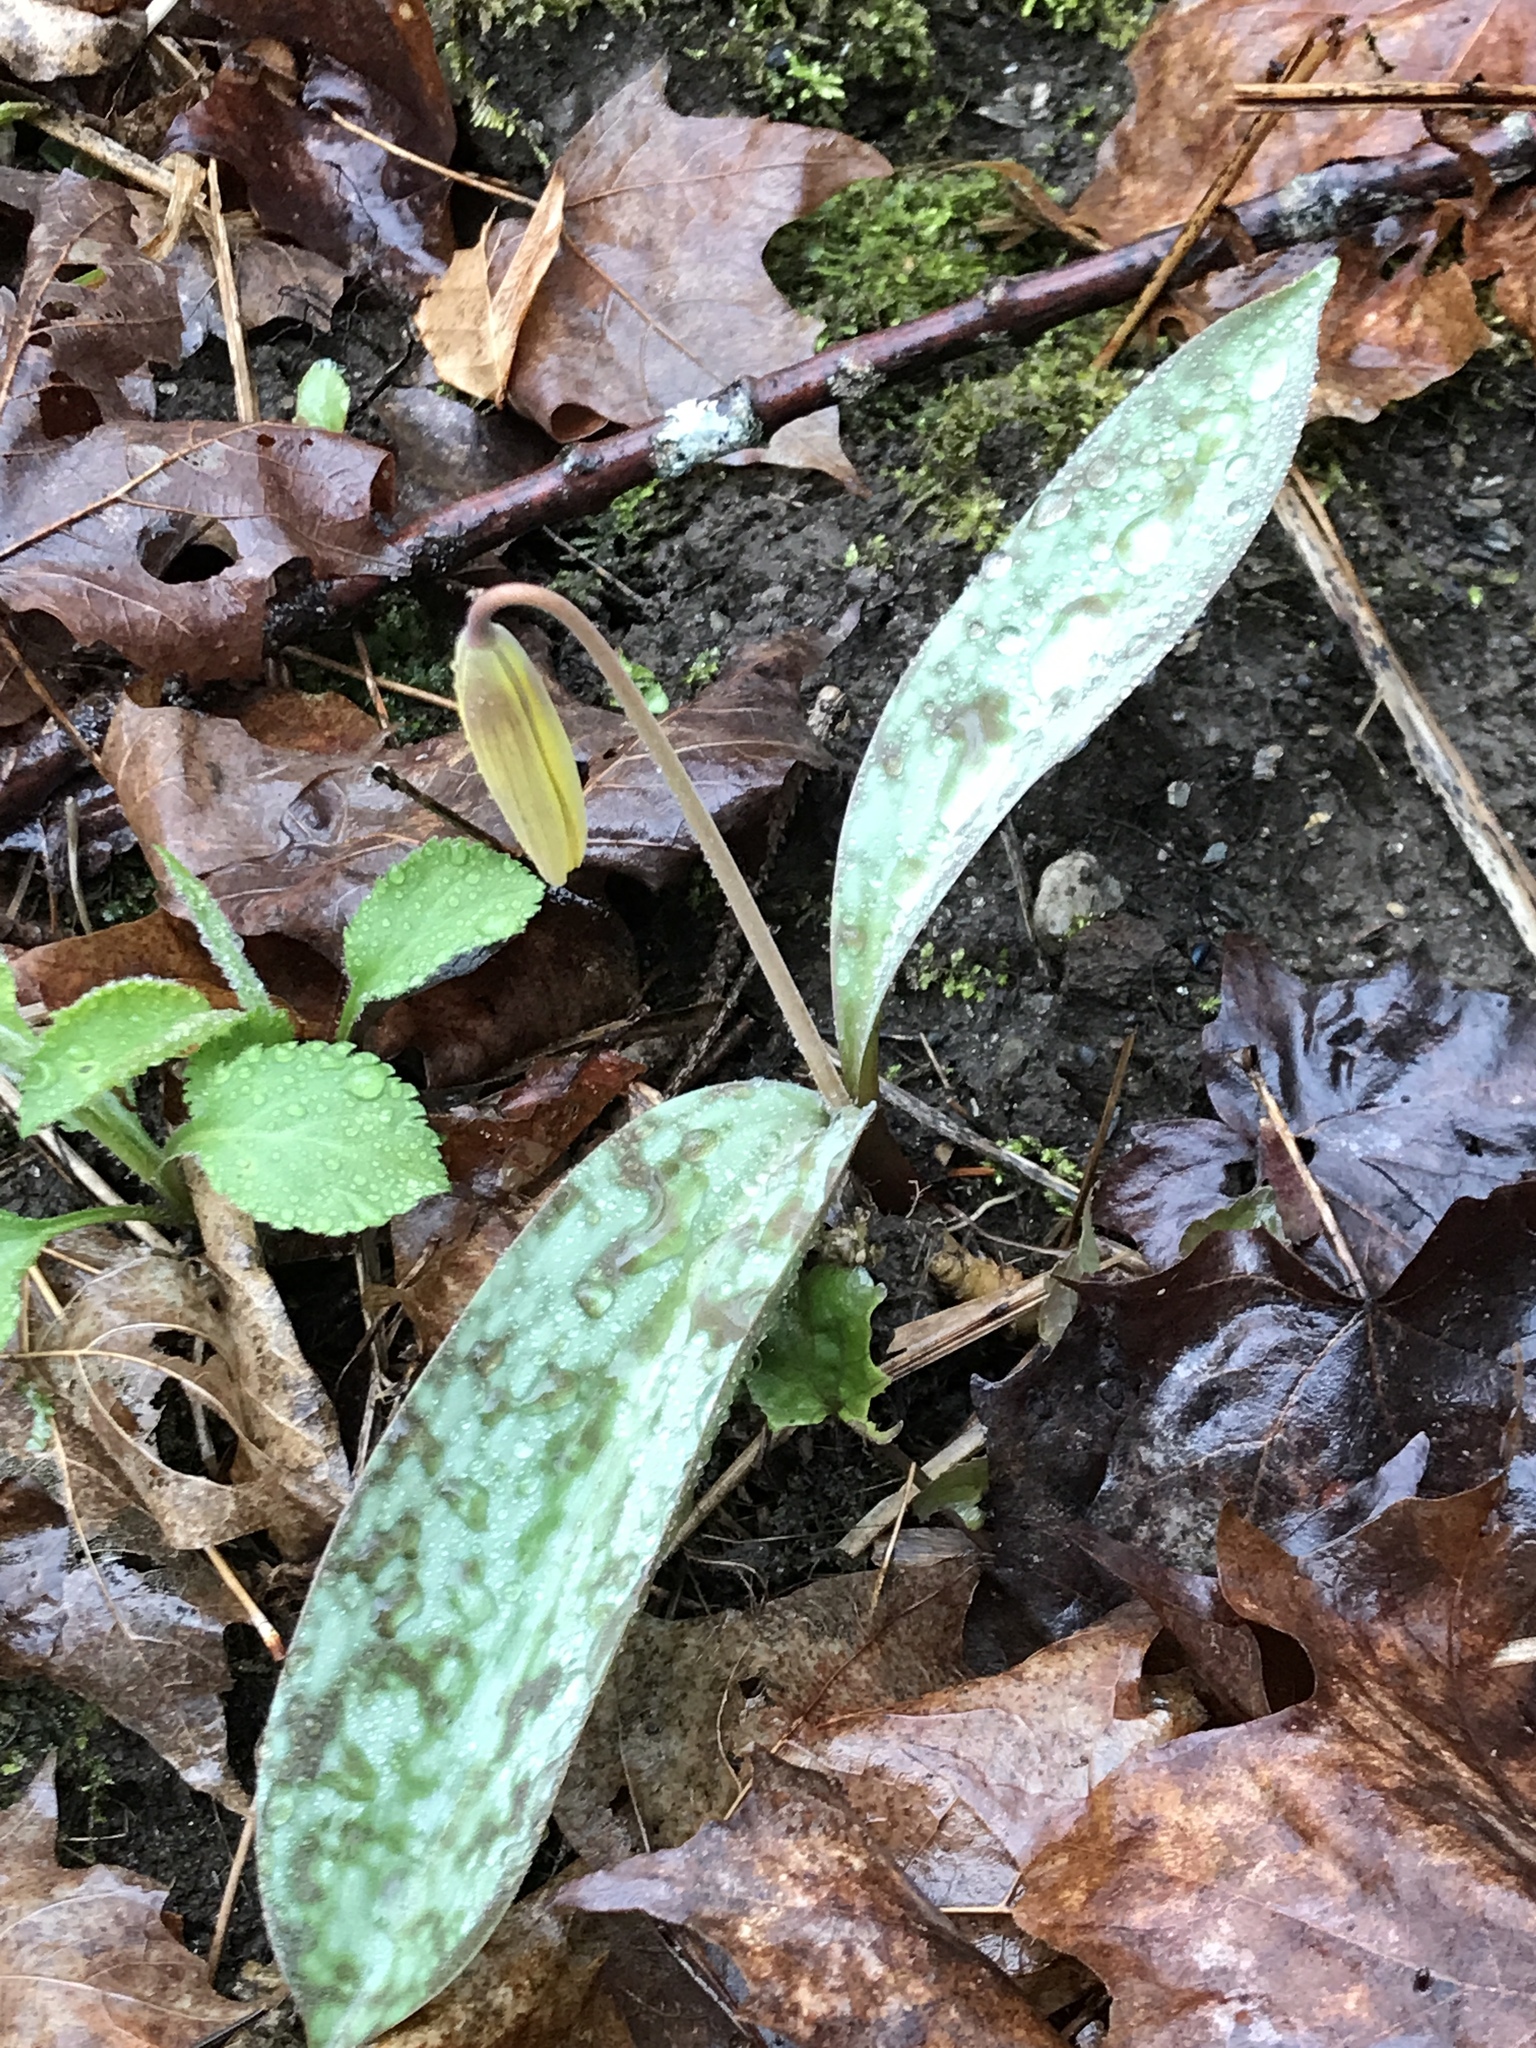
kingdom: Plantae
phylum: Tracheophyta
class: Liliopsida
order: Liliales
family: Liliaceae
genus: Erythronium
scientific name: Erythronium americanum
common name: Yellow adder's-tongue
